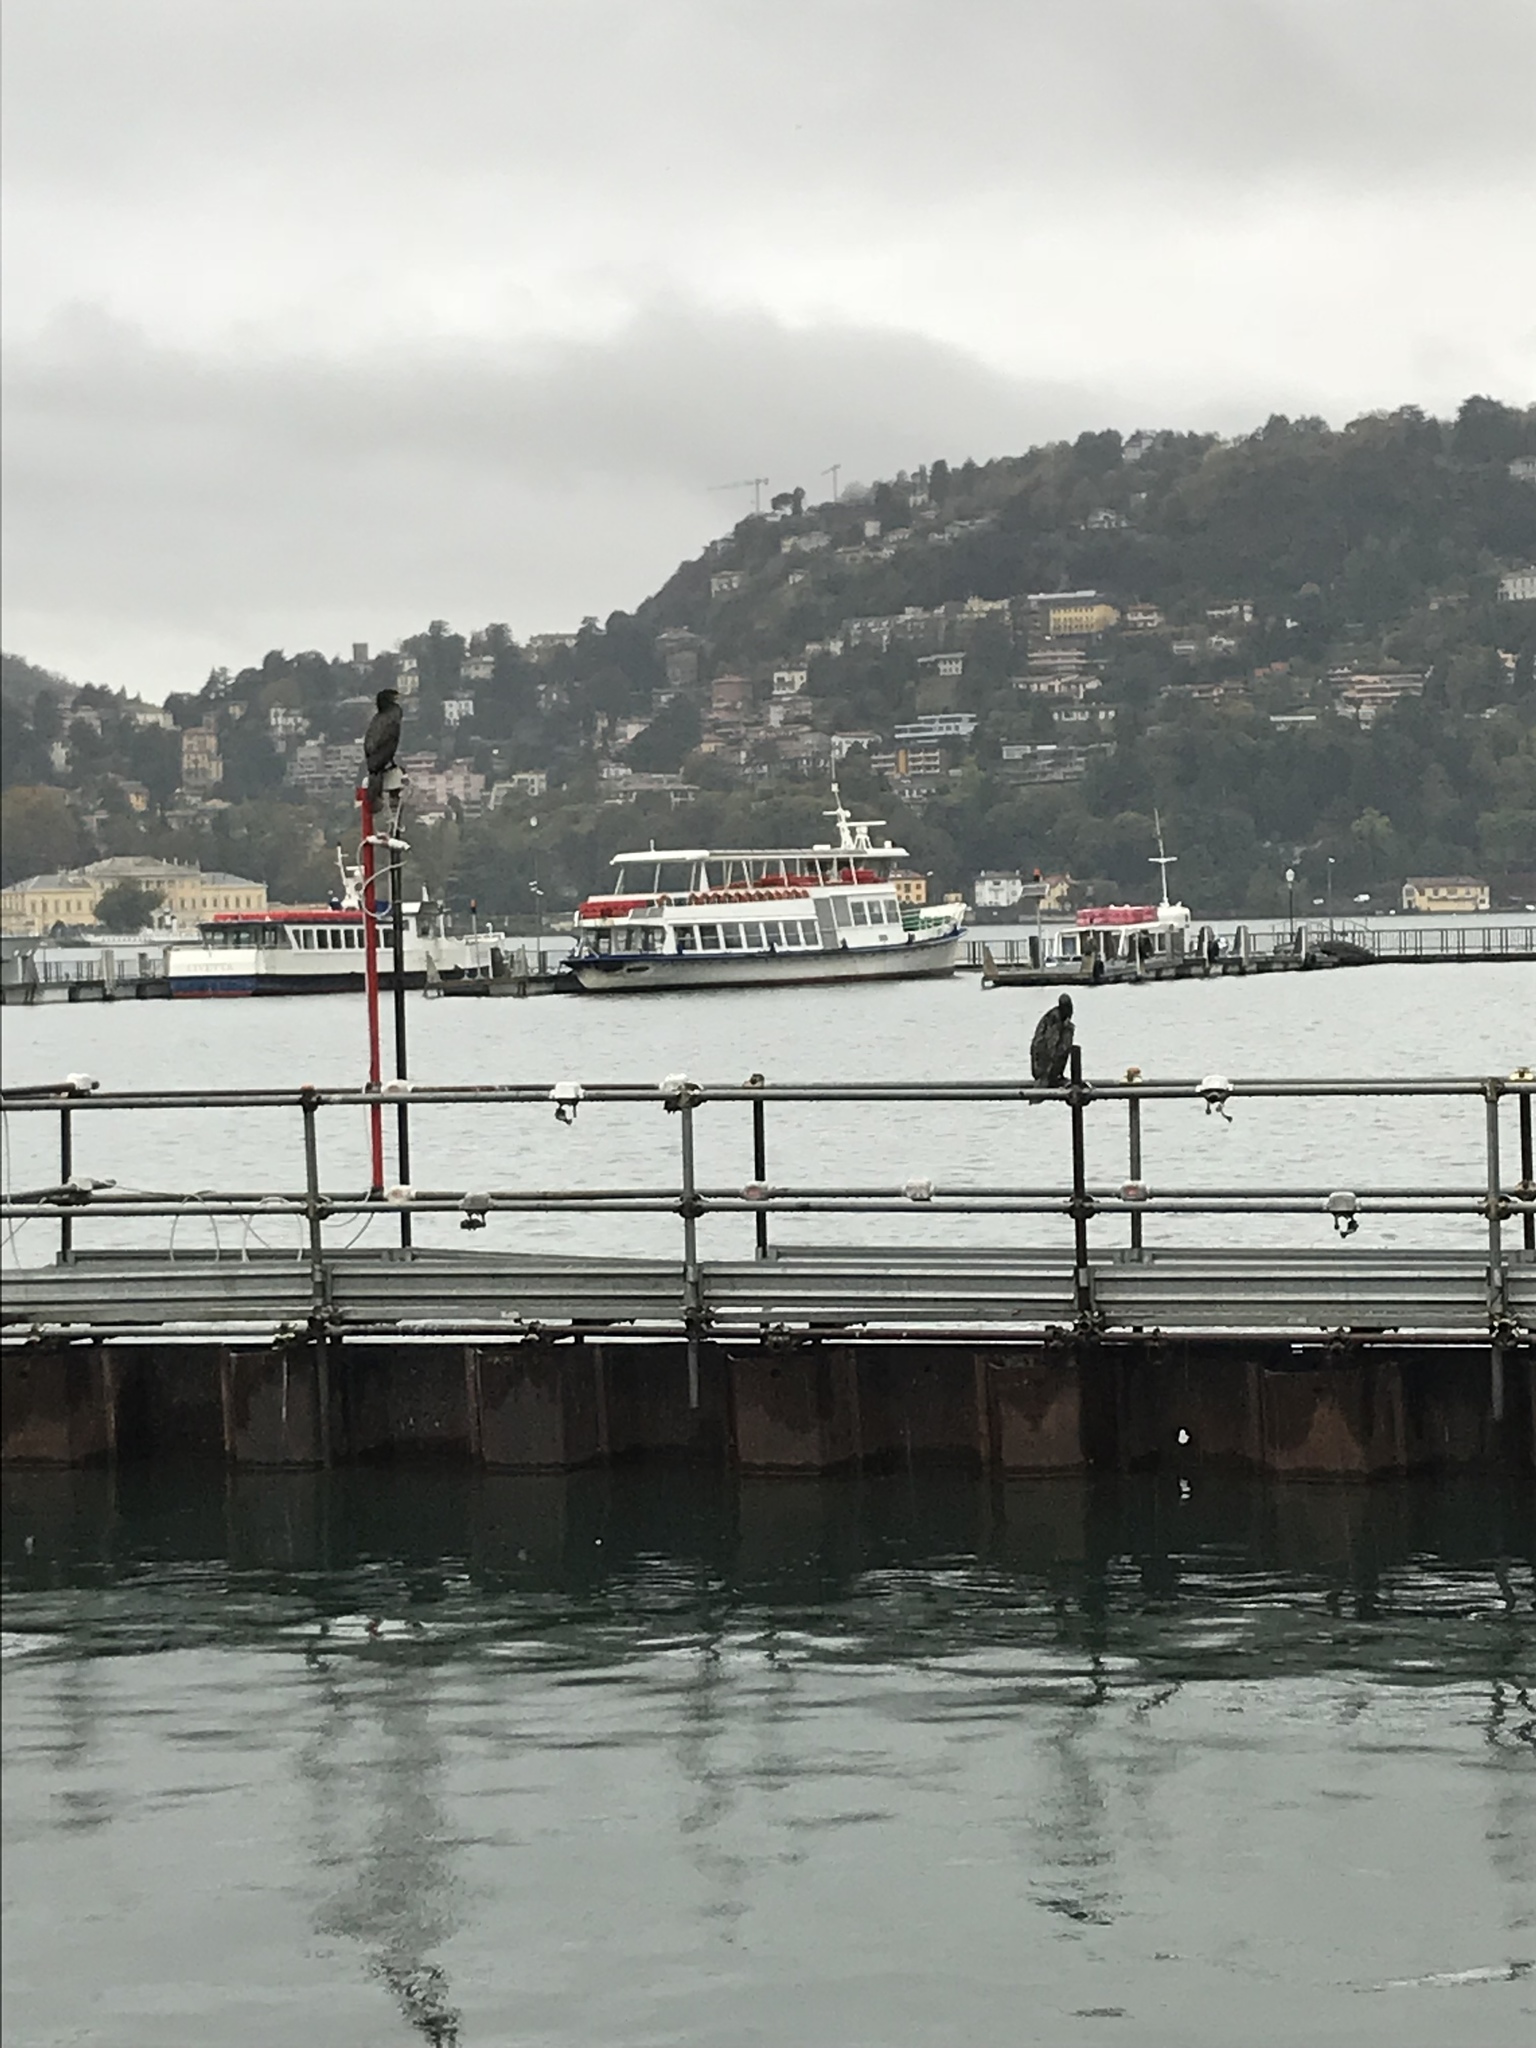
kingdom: Animalia
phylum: Chordata
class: Aves
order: Suliformes
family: Phalacrocoracidae
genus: Phalacrocorax
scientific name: Phalacrocorax carbo
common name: Great cormorant
